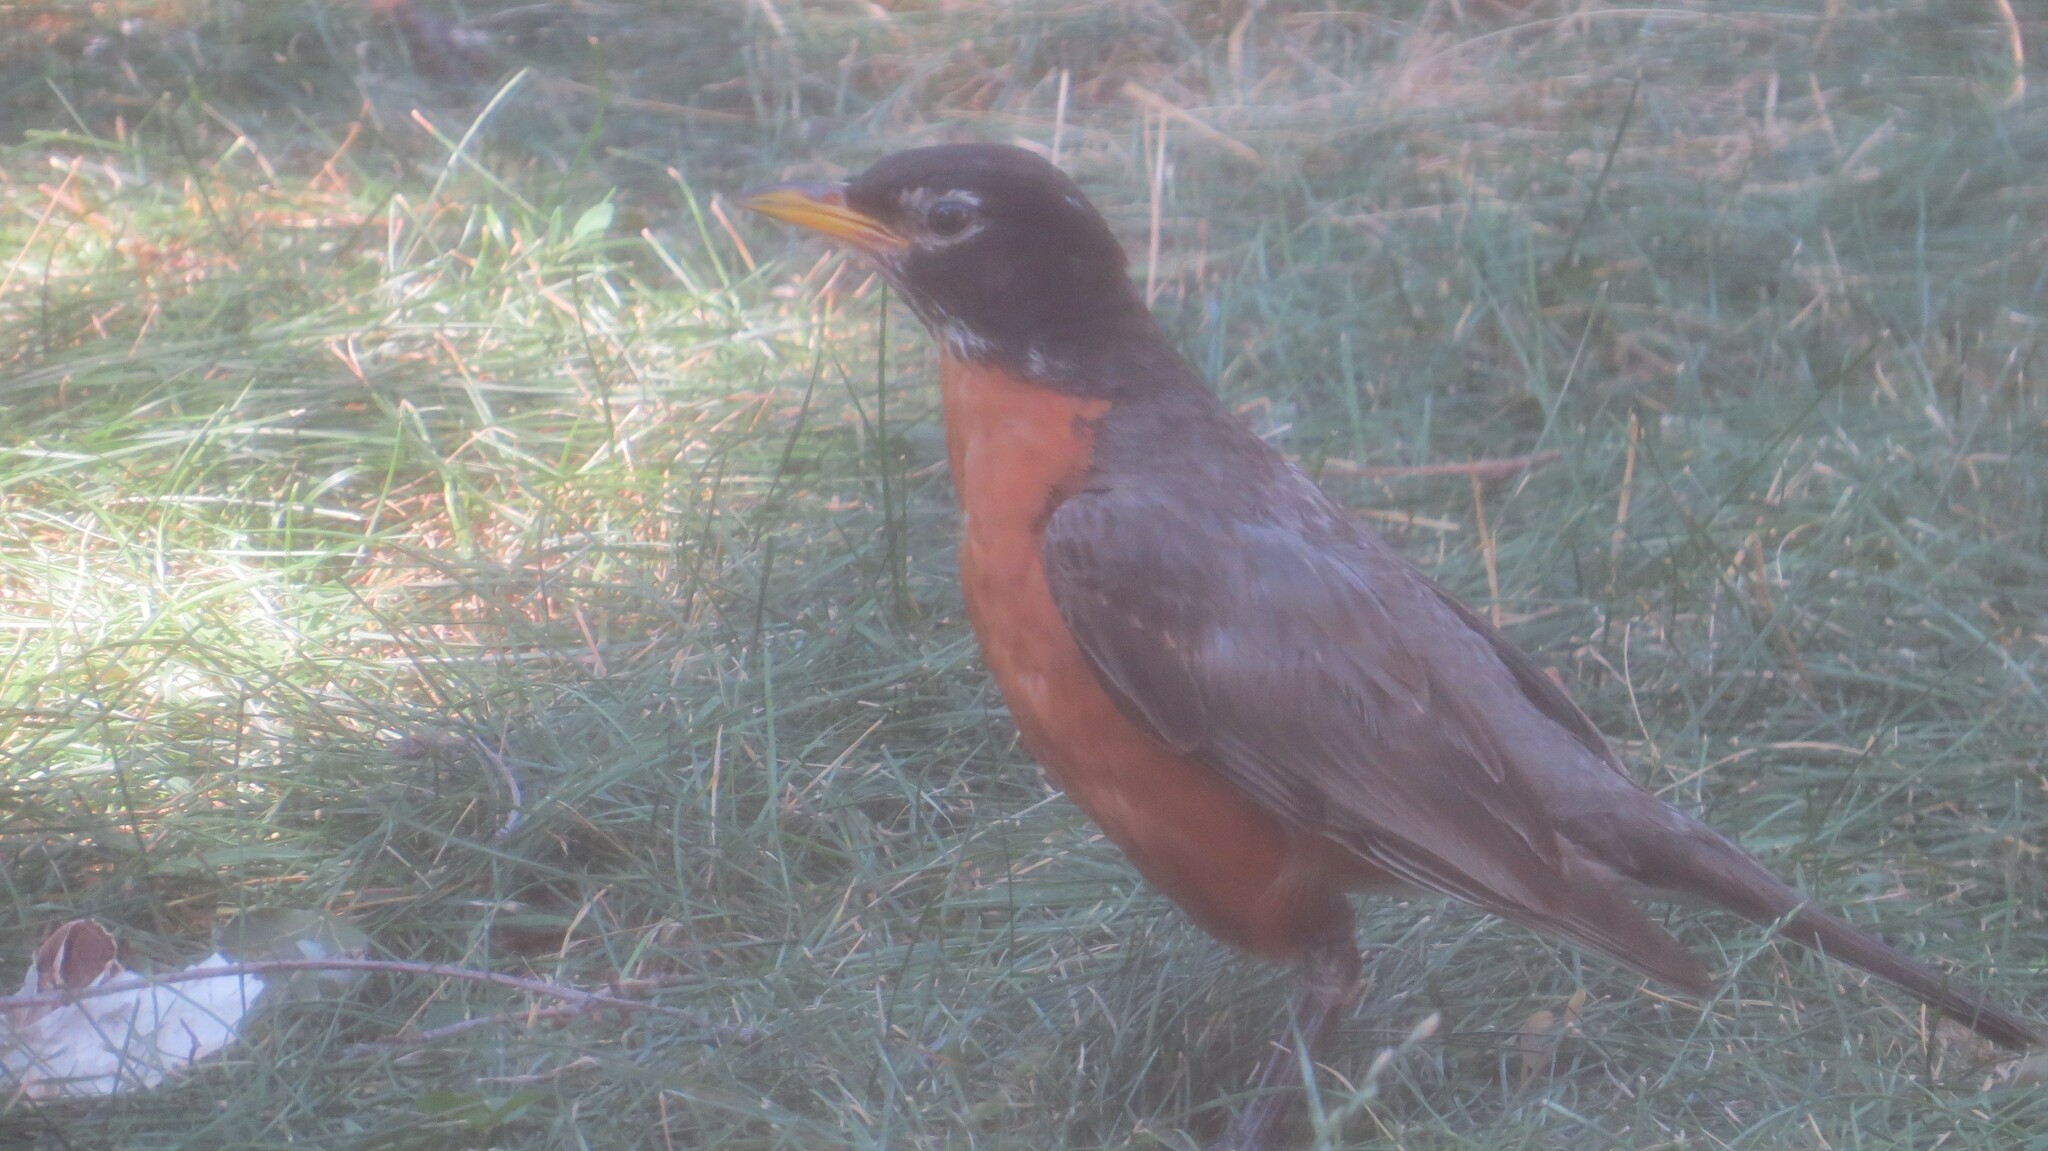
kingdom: Animalia
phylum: Chordata
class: Aves
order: Passeriformes
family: Turdidae
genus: Turdus
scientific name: Turdus migratorius
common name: American robin
